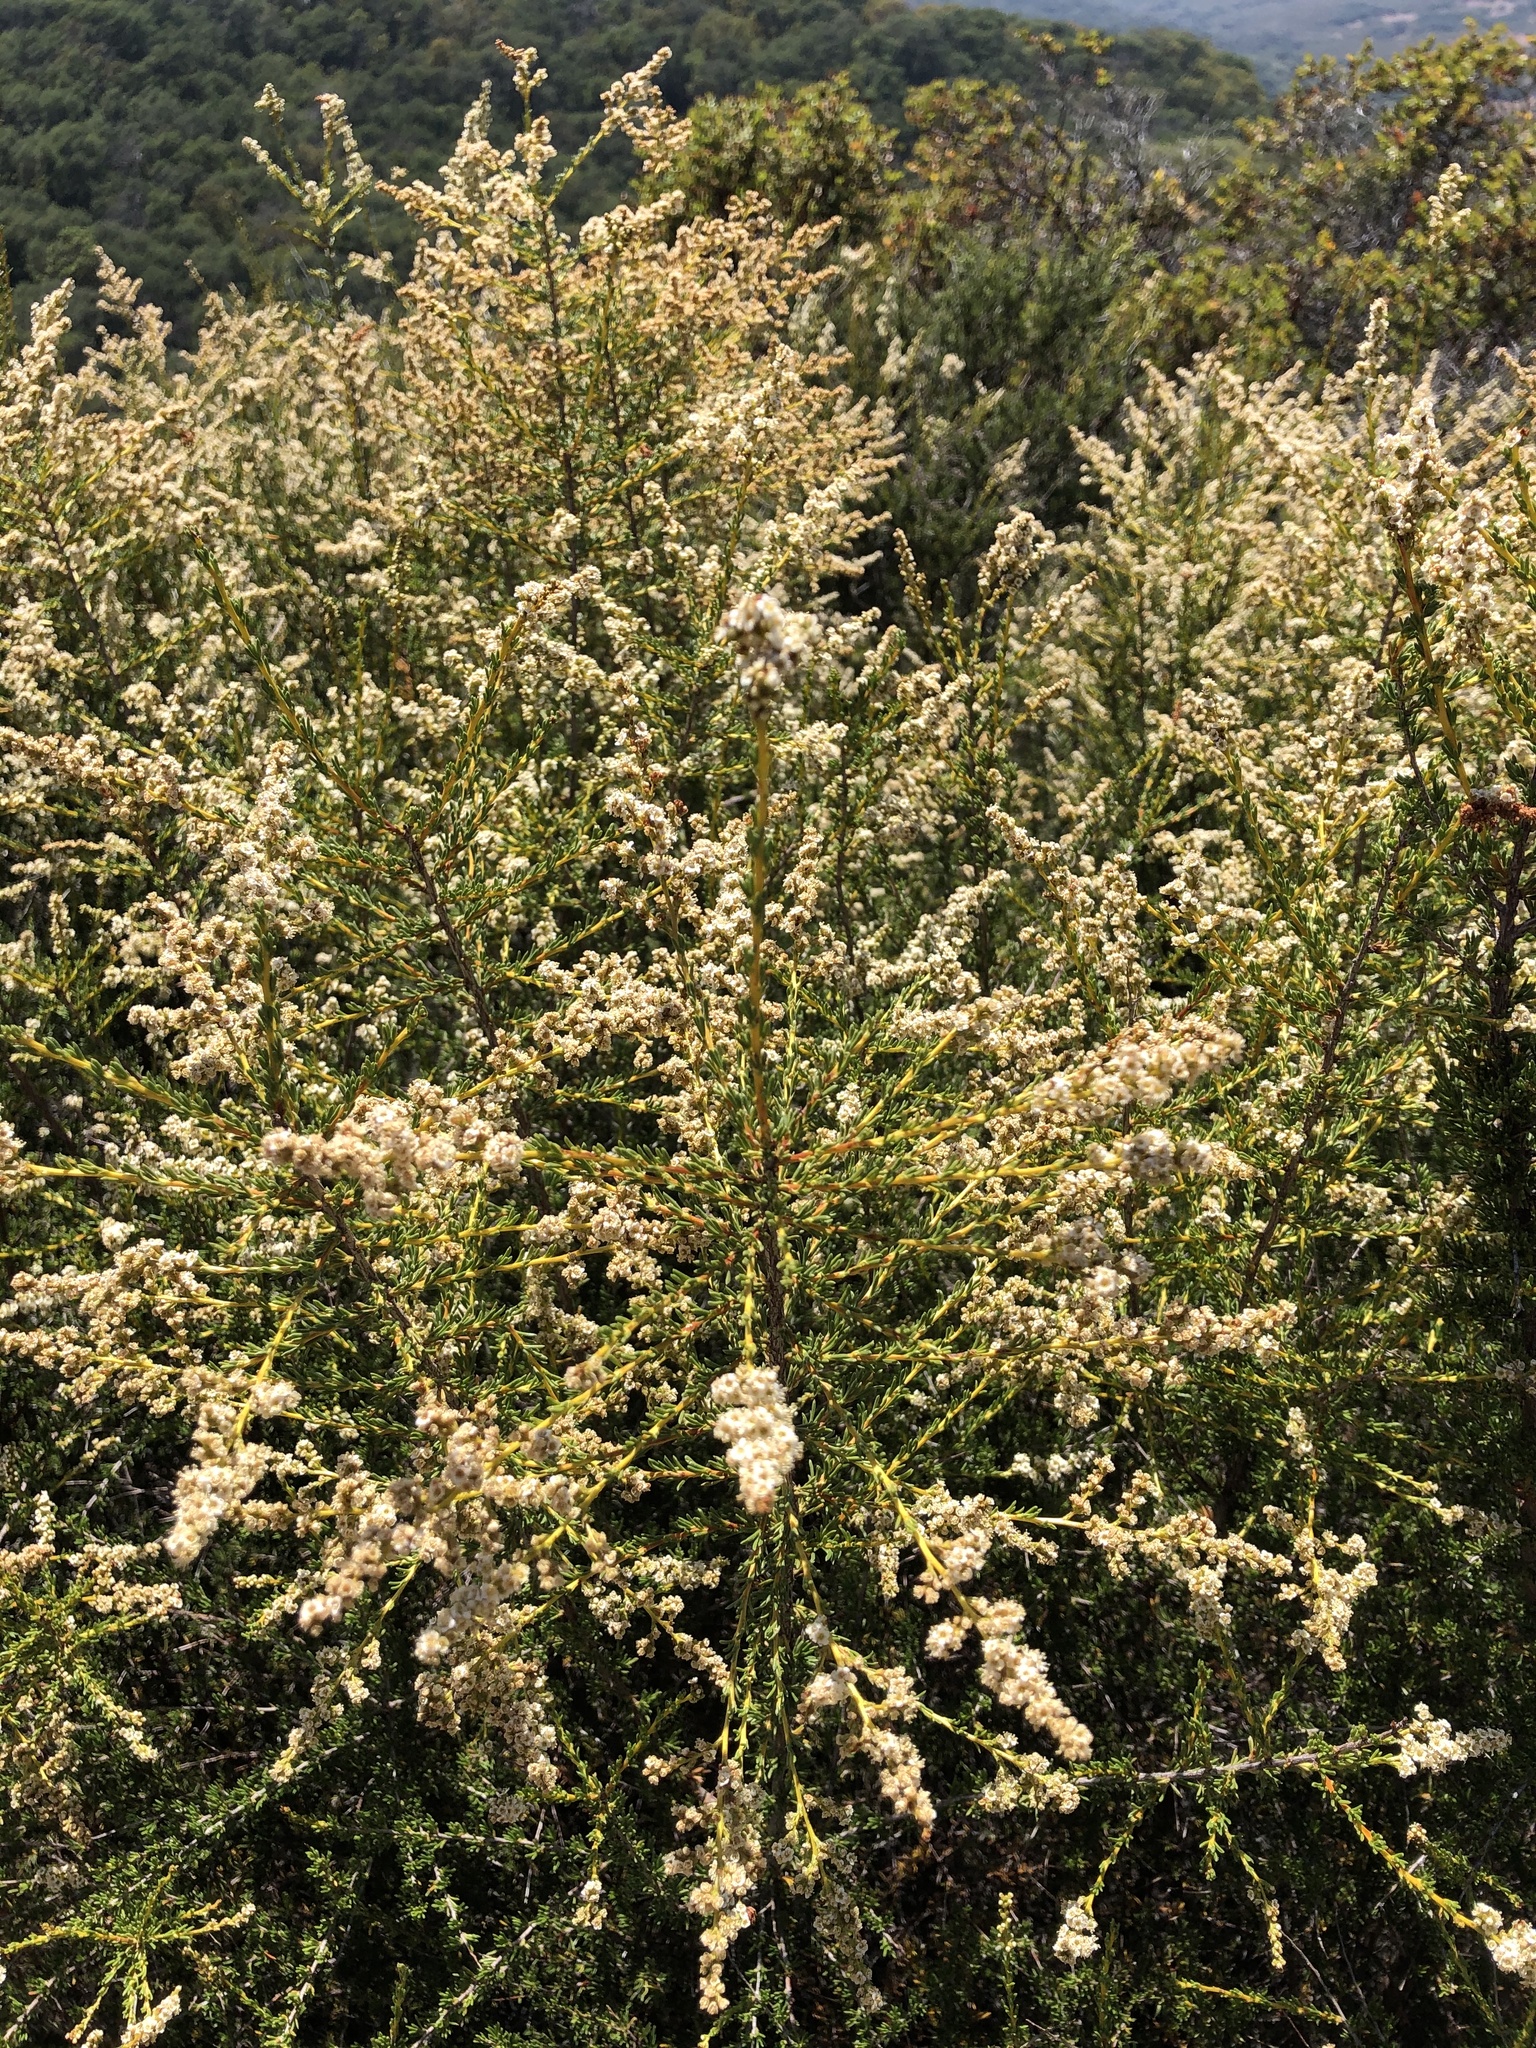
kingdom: Plantae
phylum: Tracheophyta
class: Magnoliopsida
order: Rosales
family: Rosaceae
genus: Adenostoma
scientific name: Adenostoma fasciculatum
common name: Chamise
